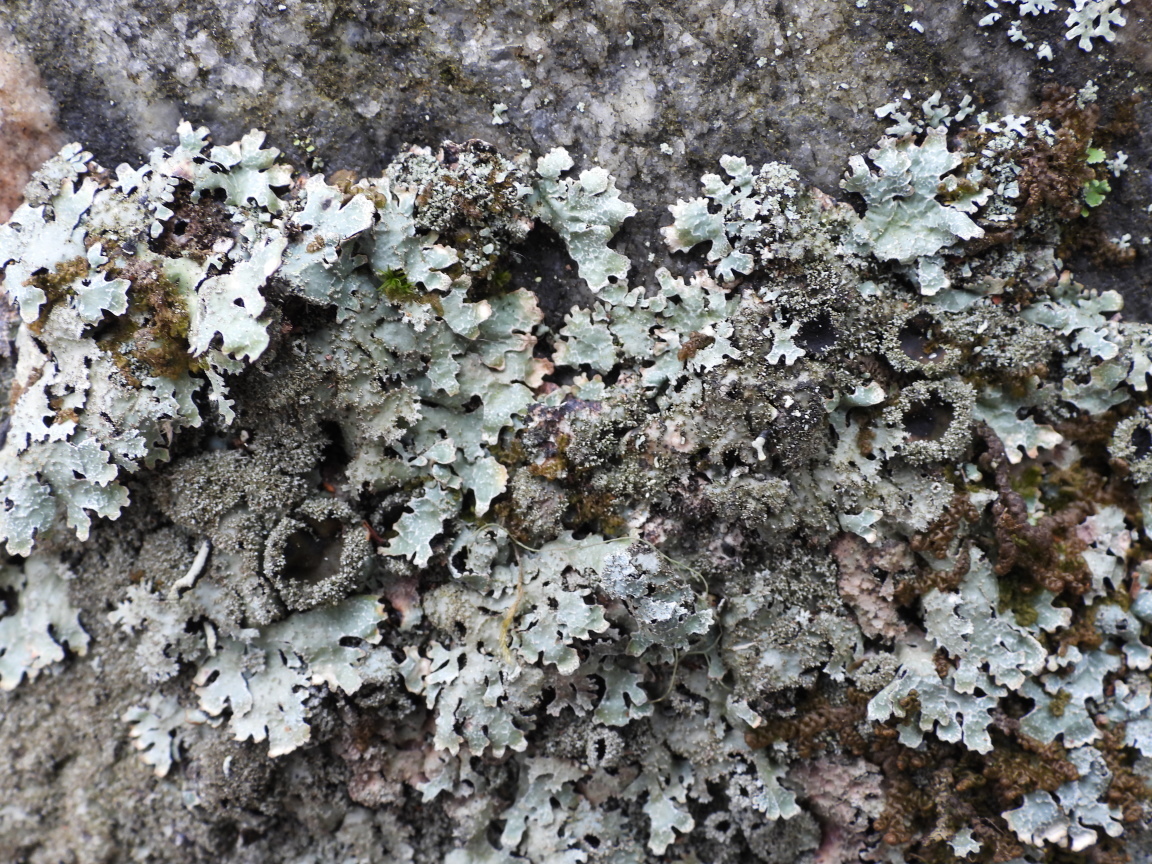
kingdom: Fungi
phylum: Ascomycota
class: Lecanoromycetes
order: Lecanorales
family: Parmeliaceae
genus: Parmelia
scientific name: Parmelia saxatilis
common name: Salted shield lichen
